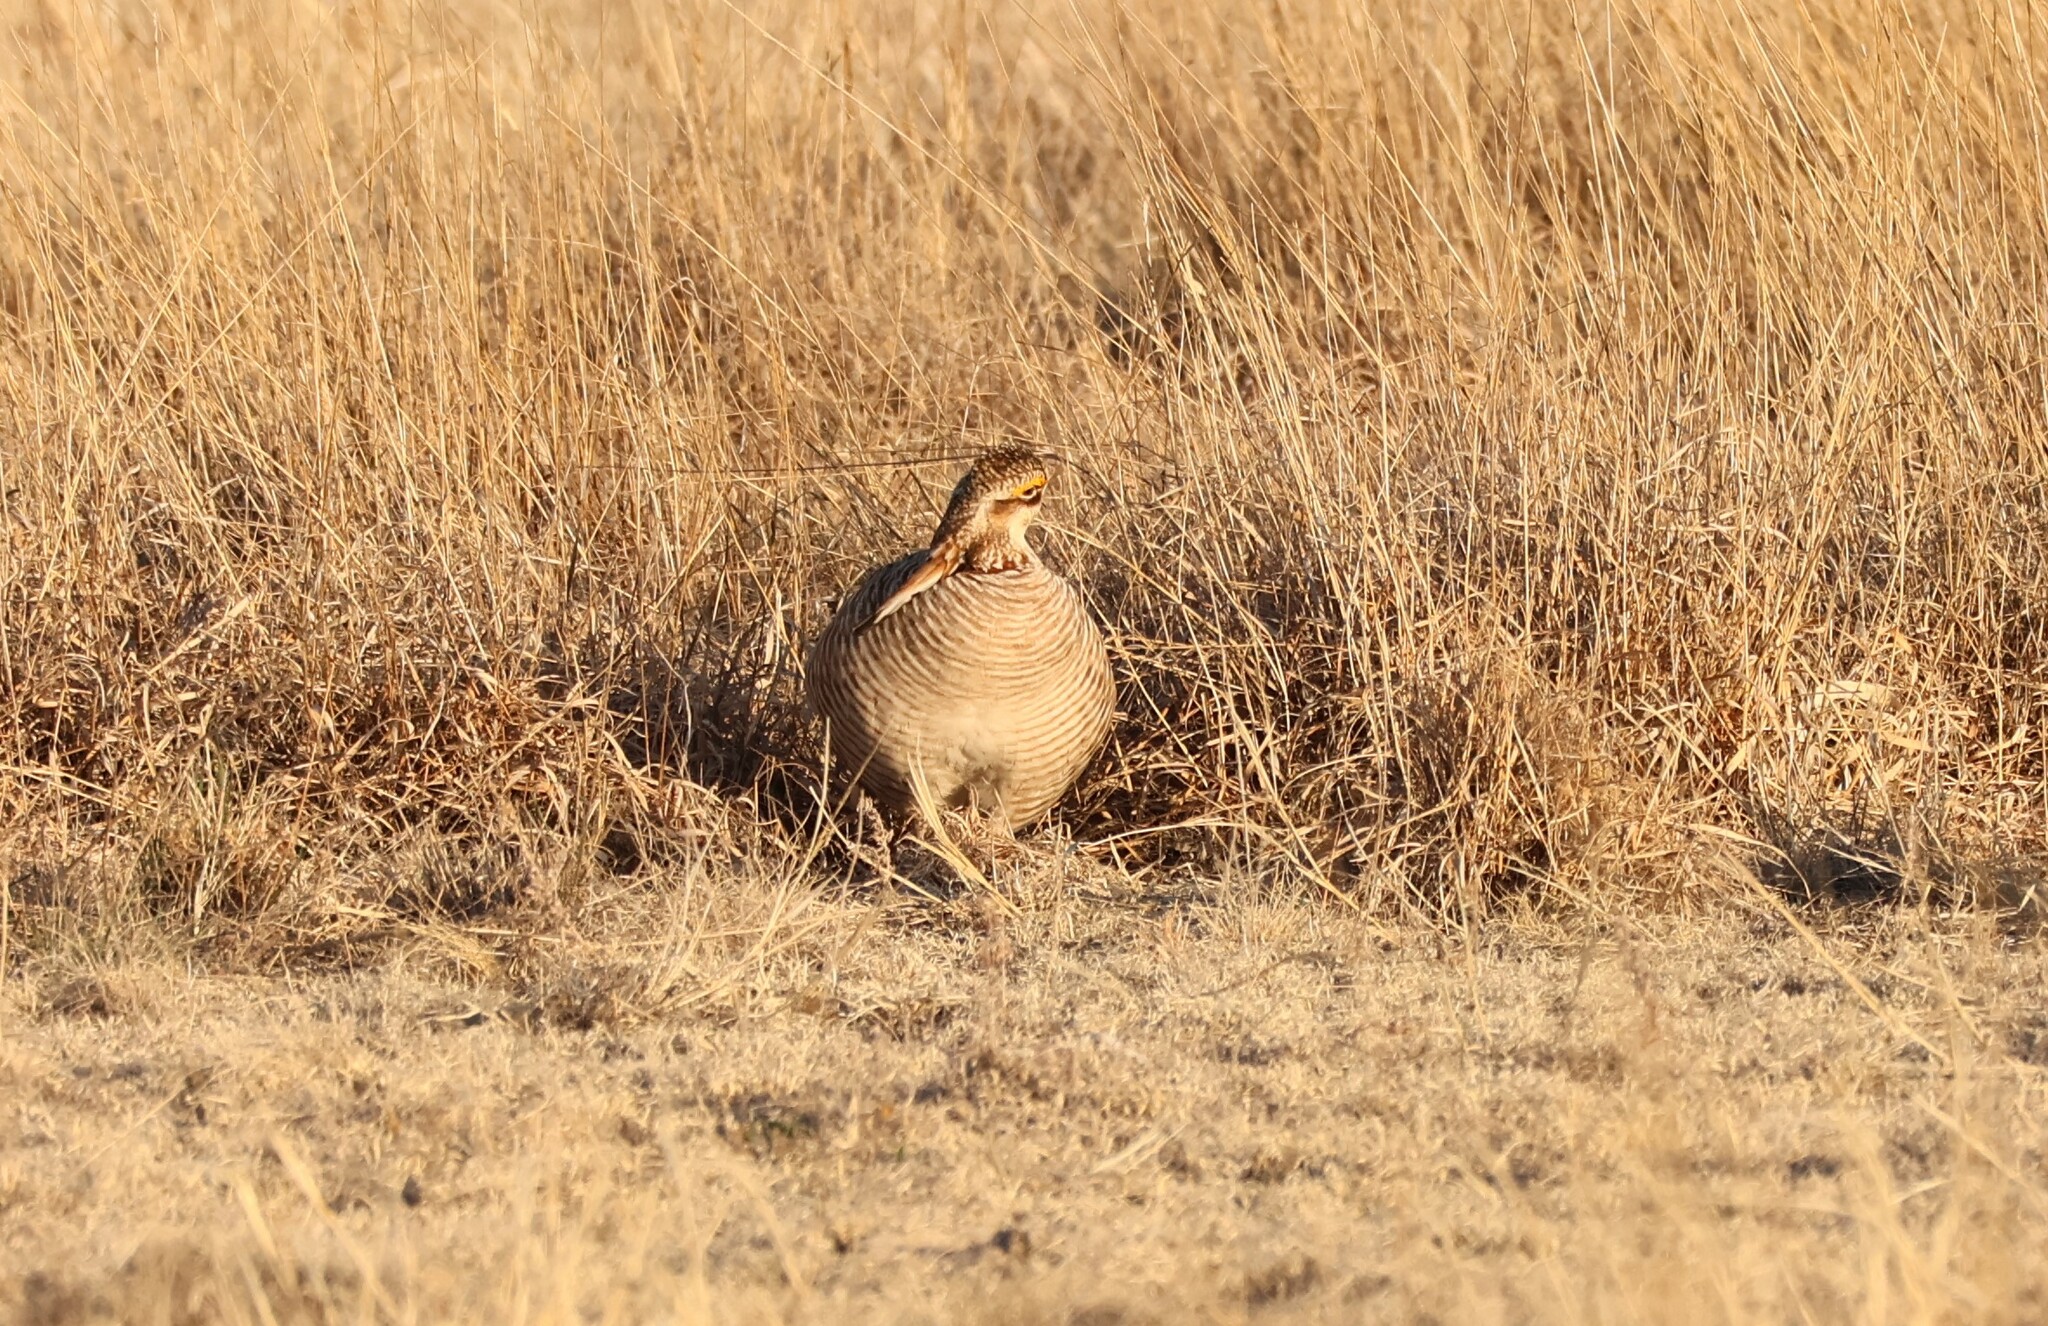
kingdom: Animalia
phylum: Chordata
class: Aves
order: Galliformes
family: Phasianidae
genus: Tympanuchus
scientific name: Tympanuchus pallidicinctus
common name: Lesser prairie chicken
